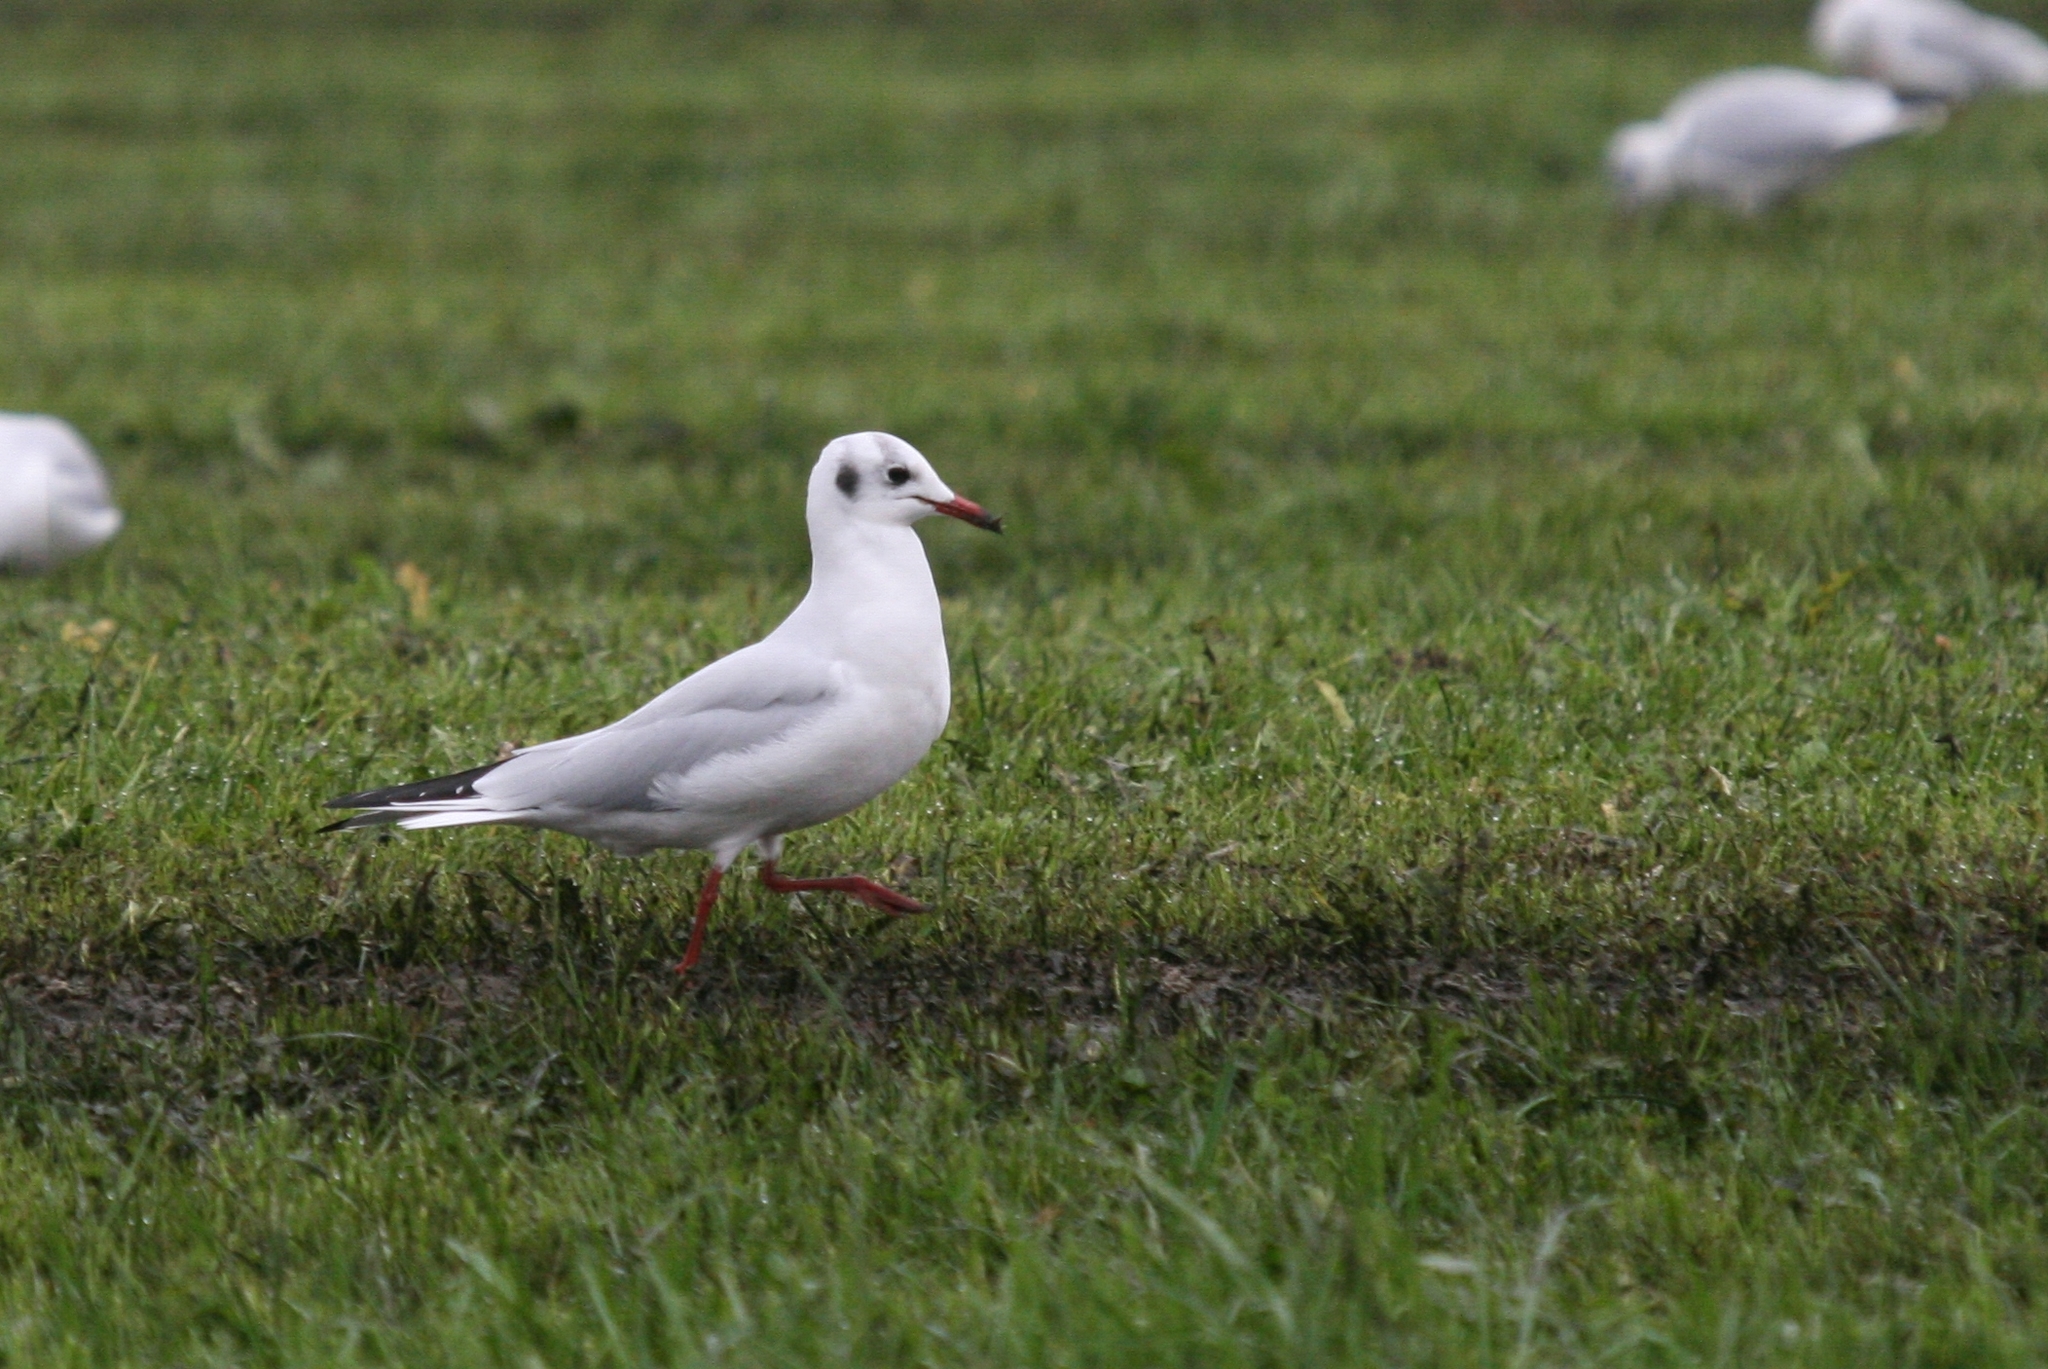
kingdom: Animalia
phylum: Chordata
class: Aves
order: Charadriiformes
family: Laridae
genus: Chroicocephalus
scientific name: Chroicocephalus ridibundus
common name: Black-headed gull
